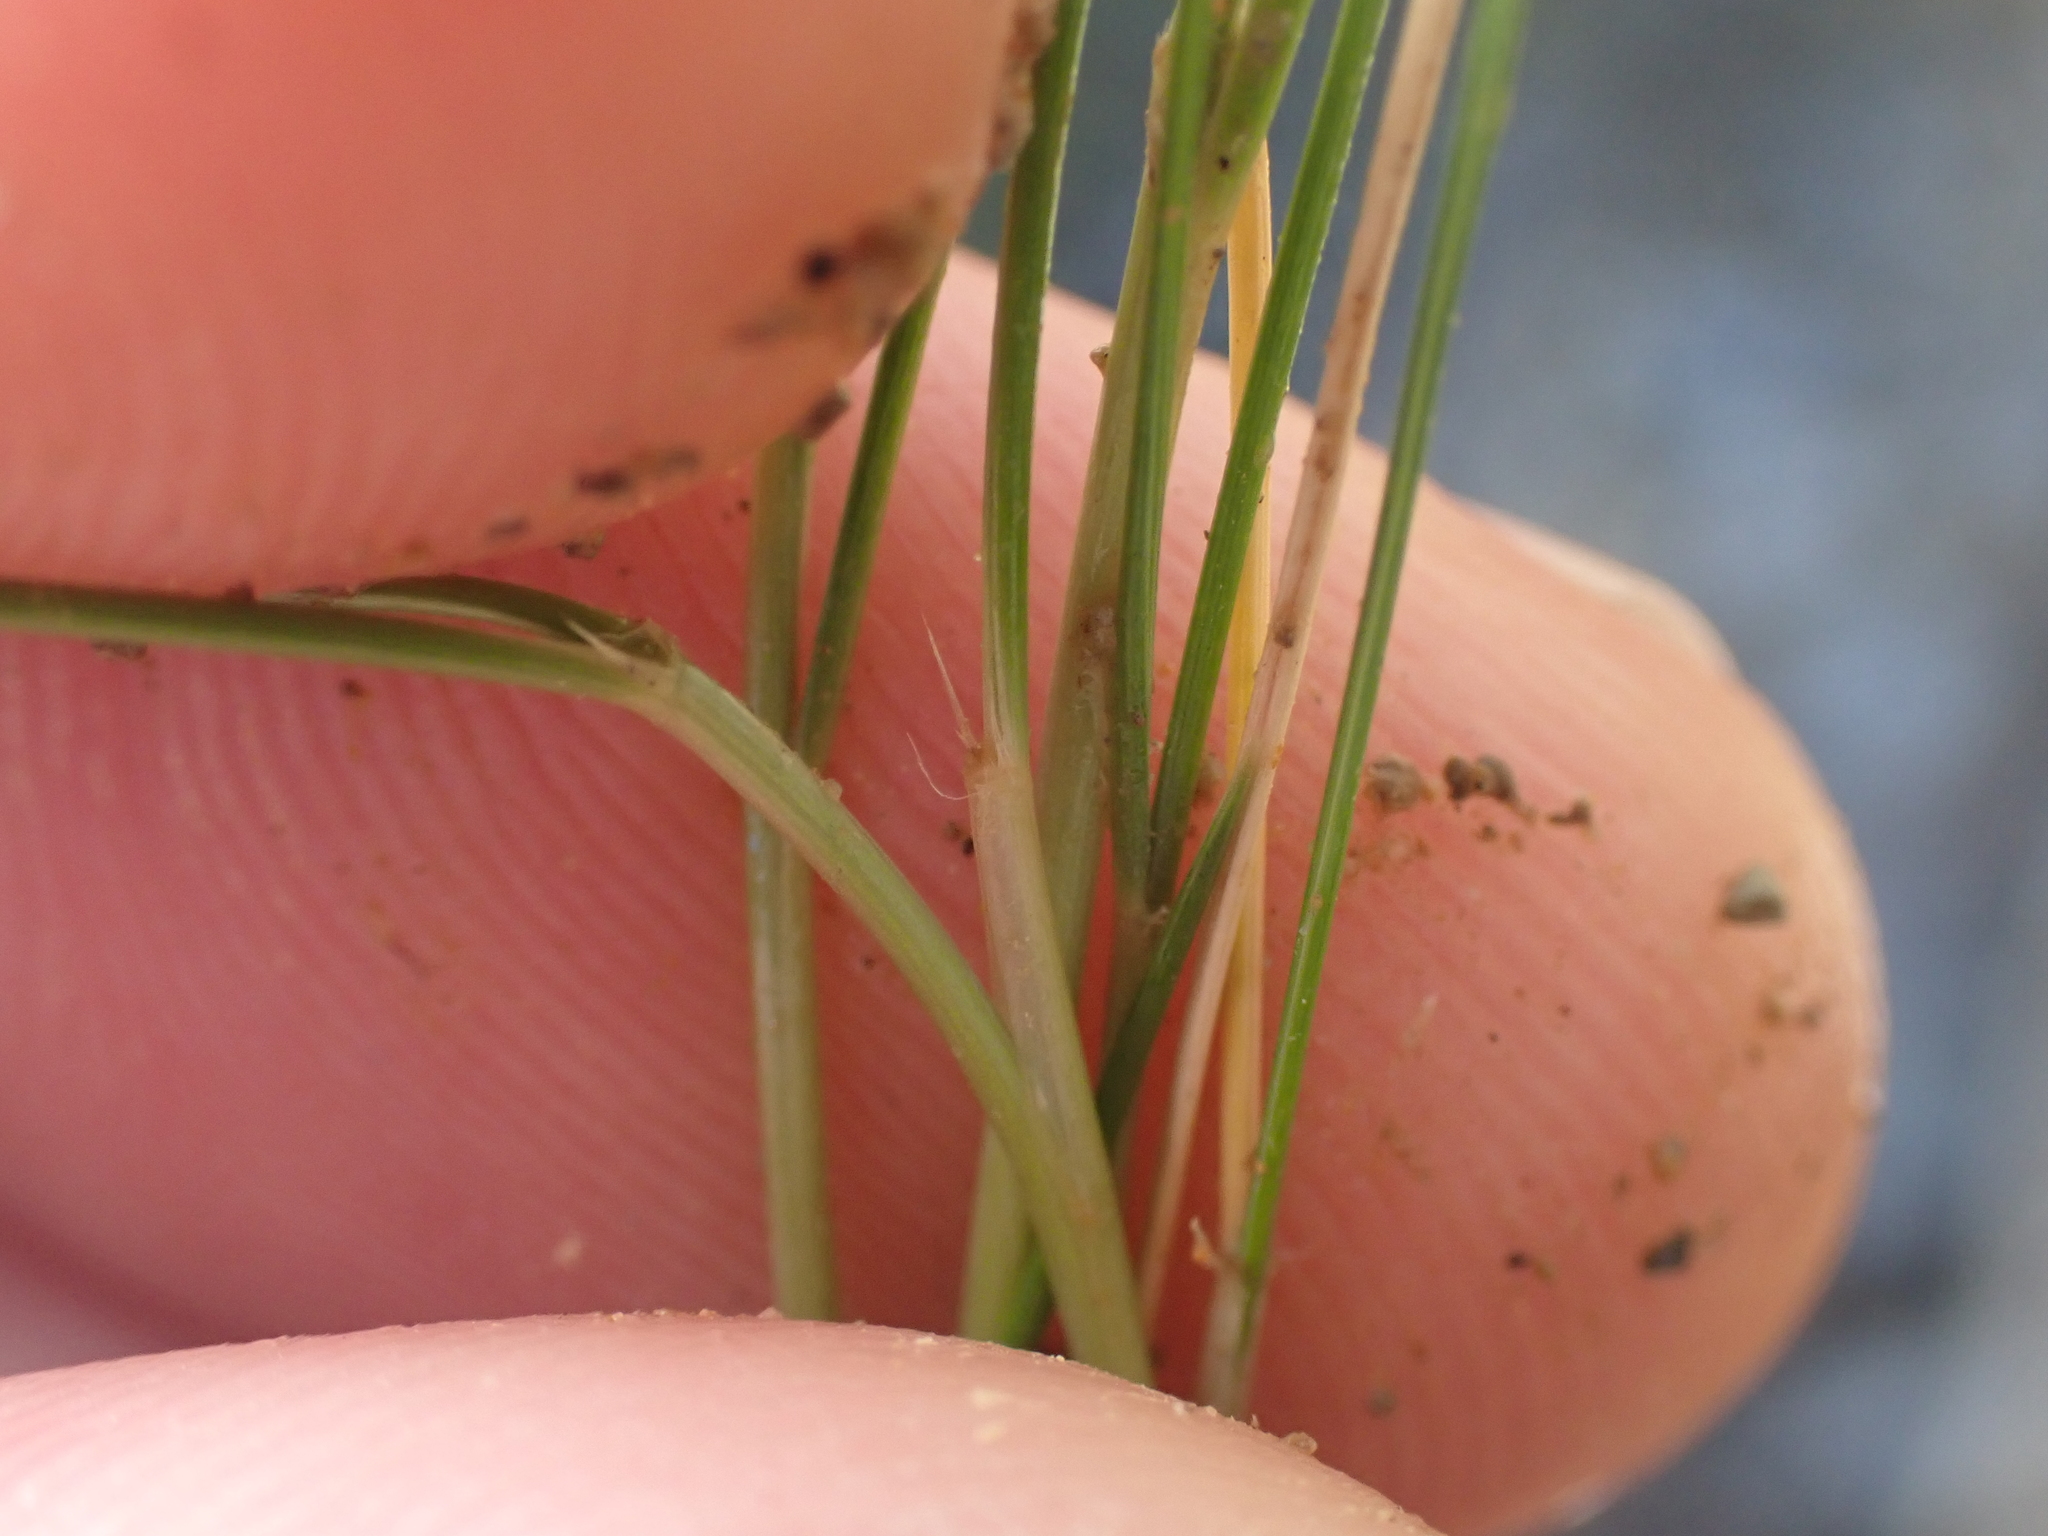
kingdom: Plantae
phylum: Tracheophyta
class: Liliopsida
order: Poales
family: Poaceae
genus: Rytidosperma
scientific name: Rytidosperma setifolium
